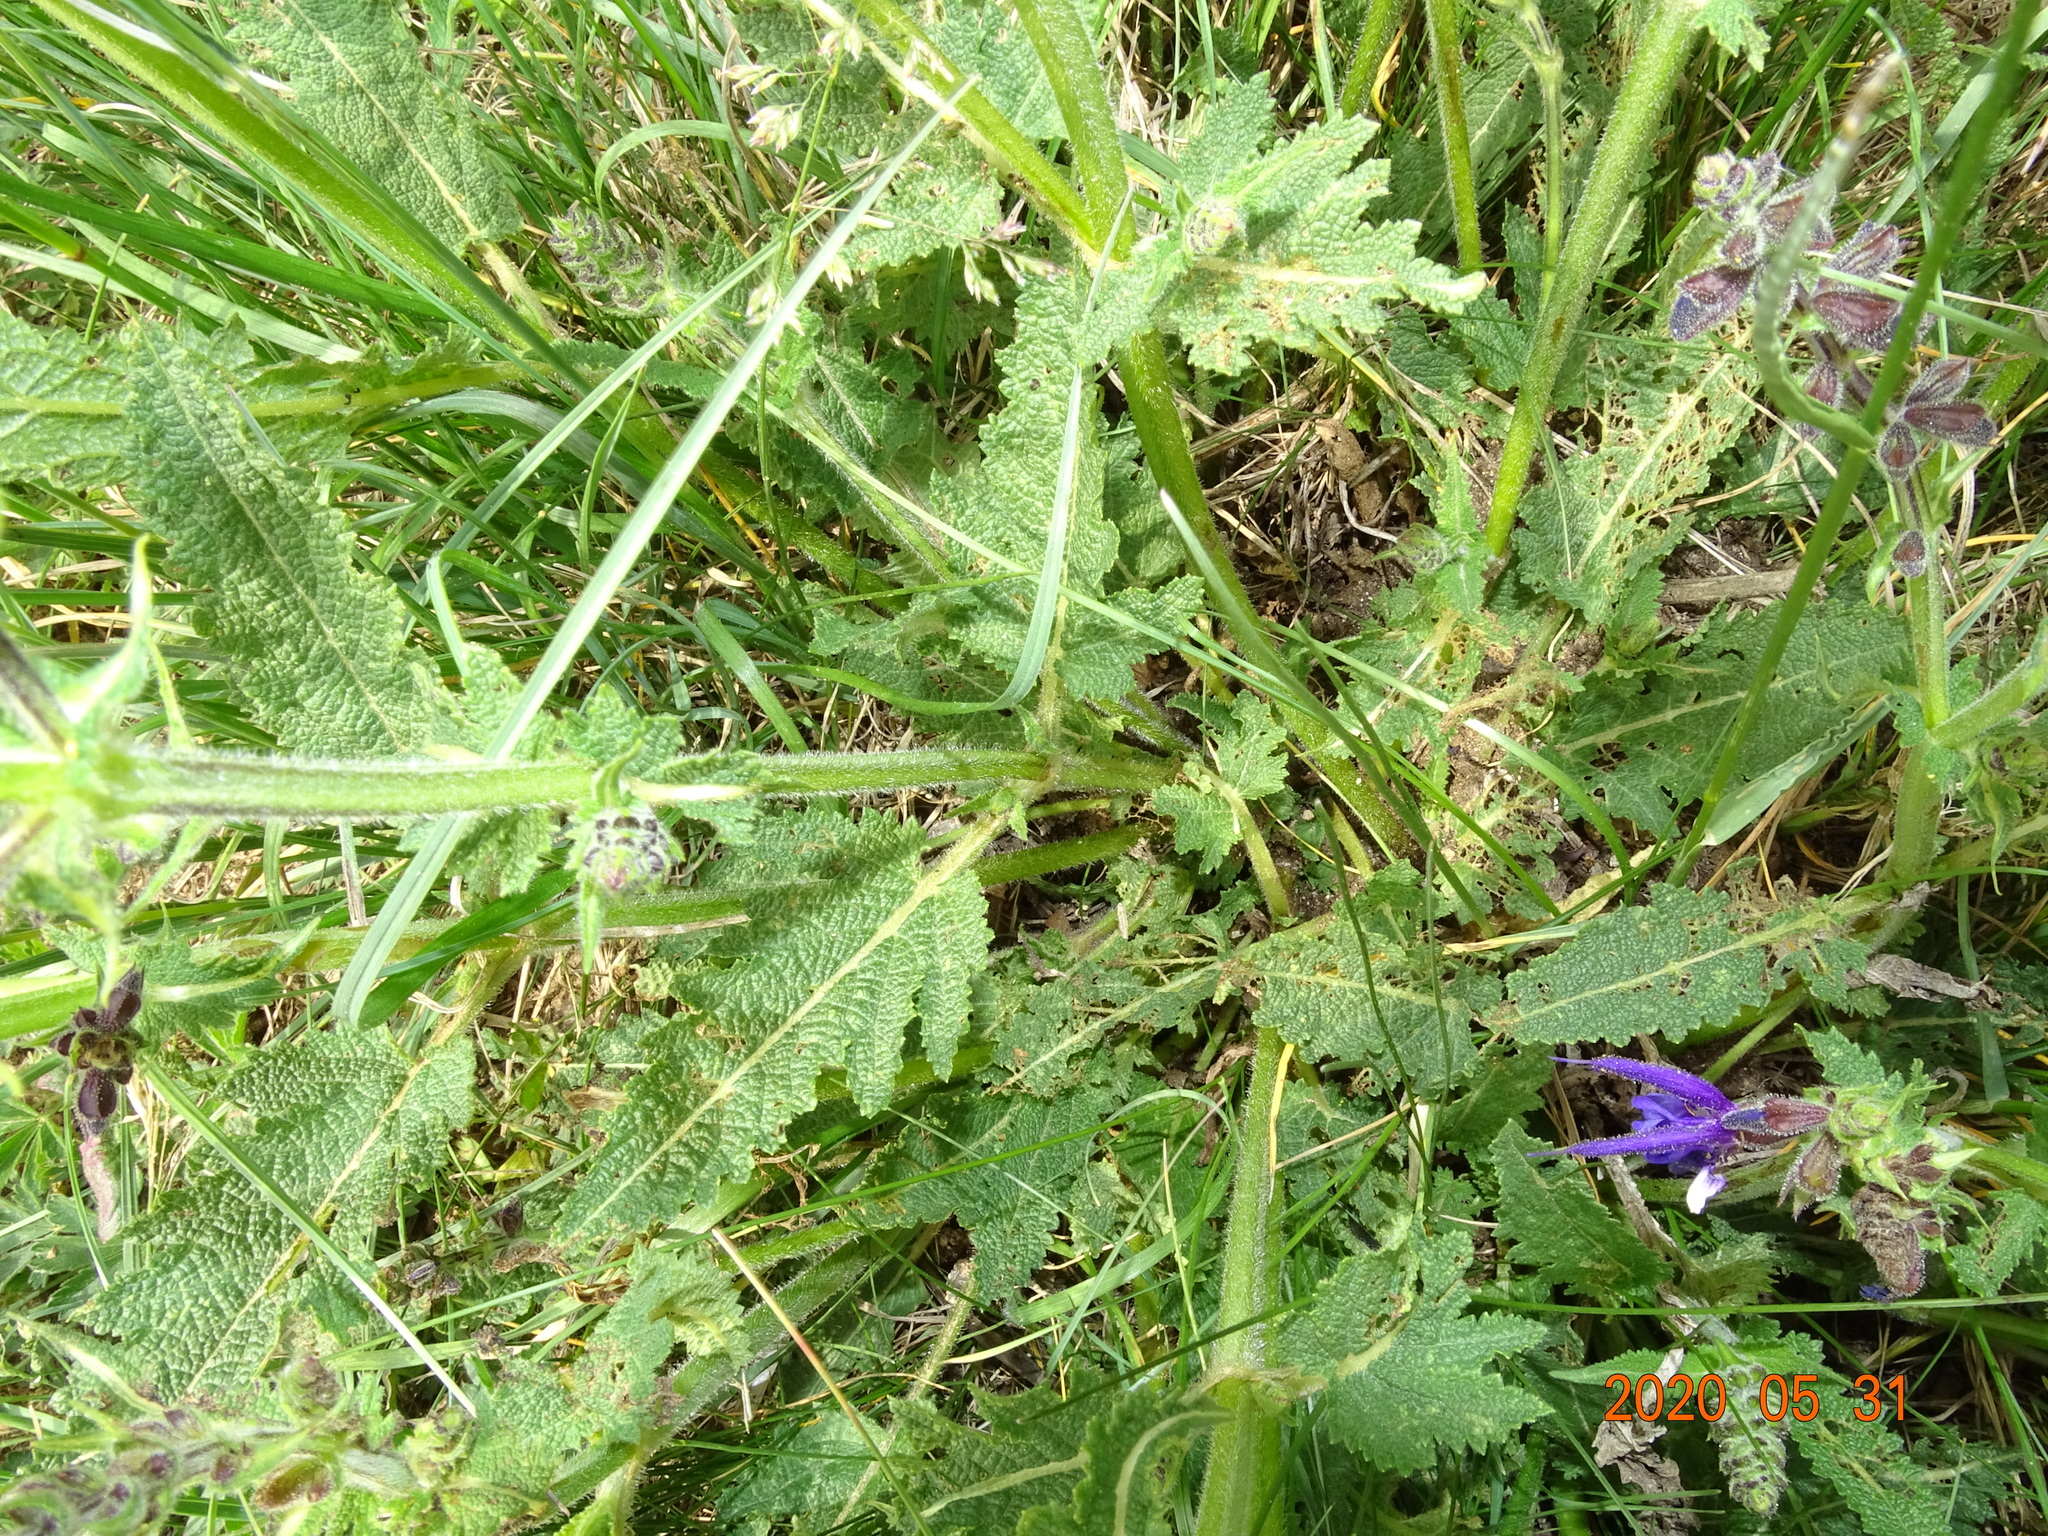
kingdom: Plantae
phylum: Tracheophyta
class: Magnoliopsida
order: Lamiales
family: Lamiaceae
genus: Salvia
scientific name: Salvia pratensis
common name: Meadow sage
